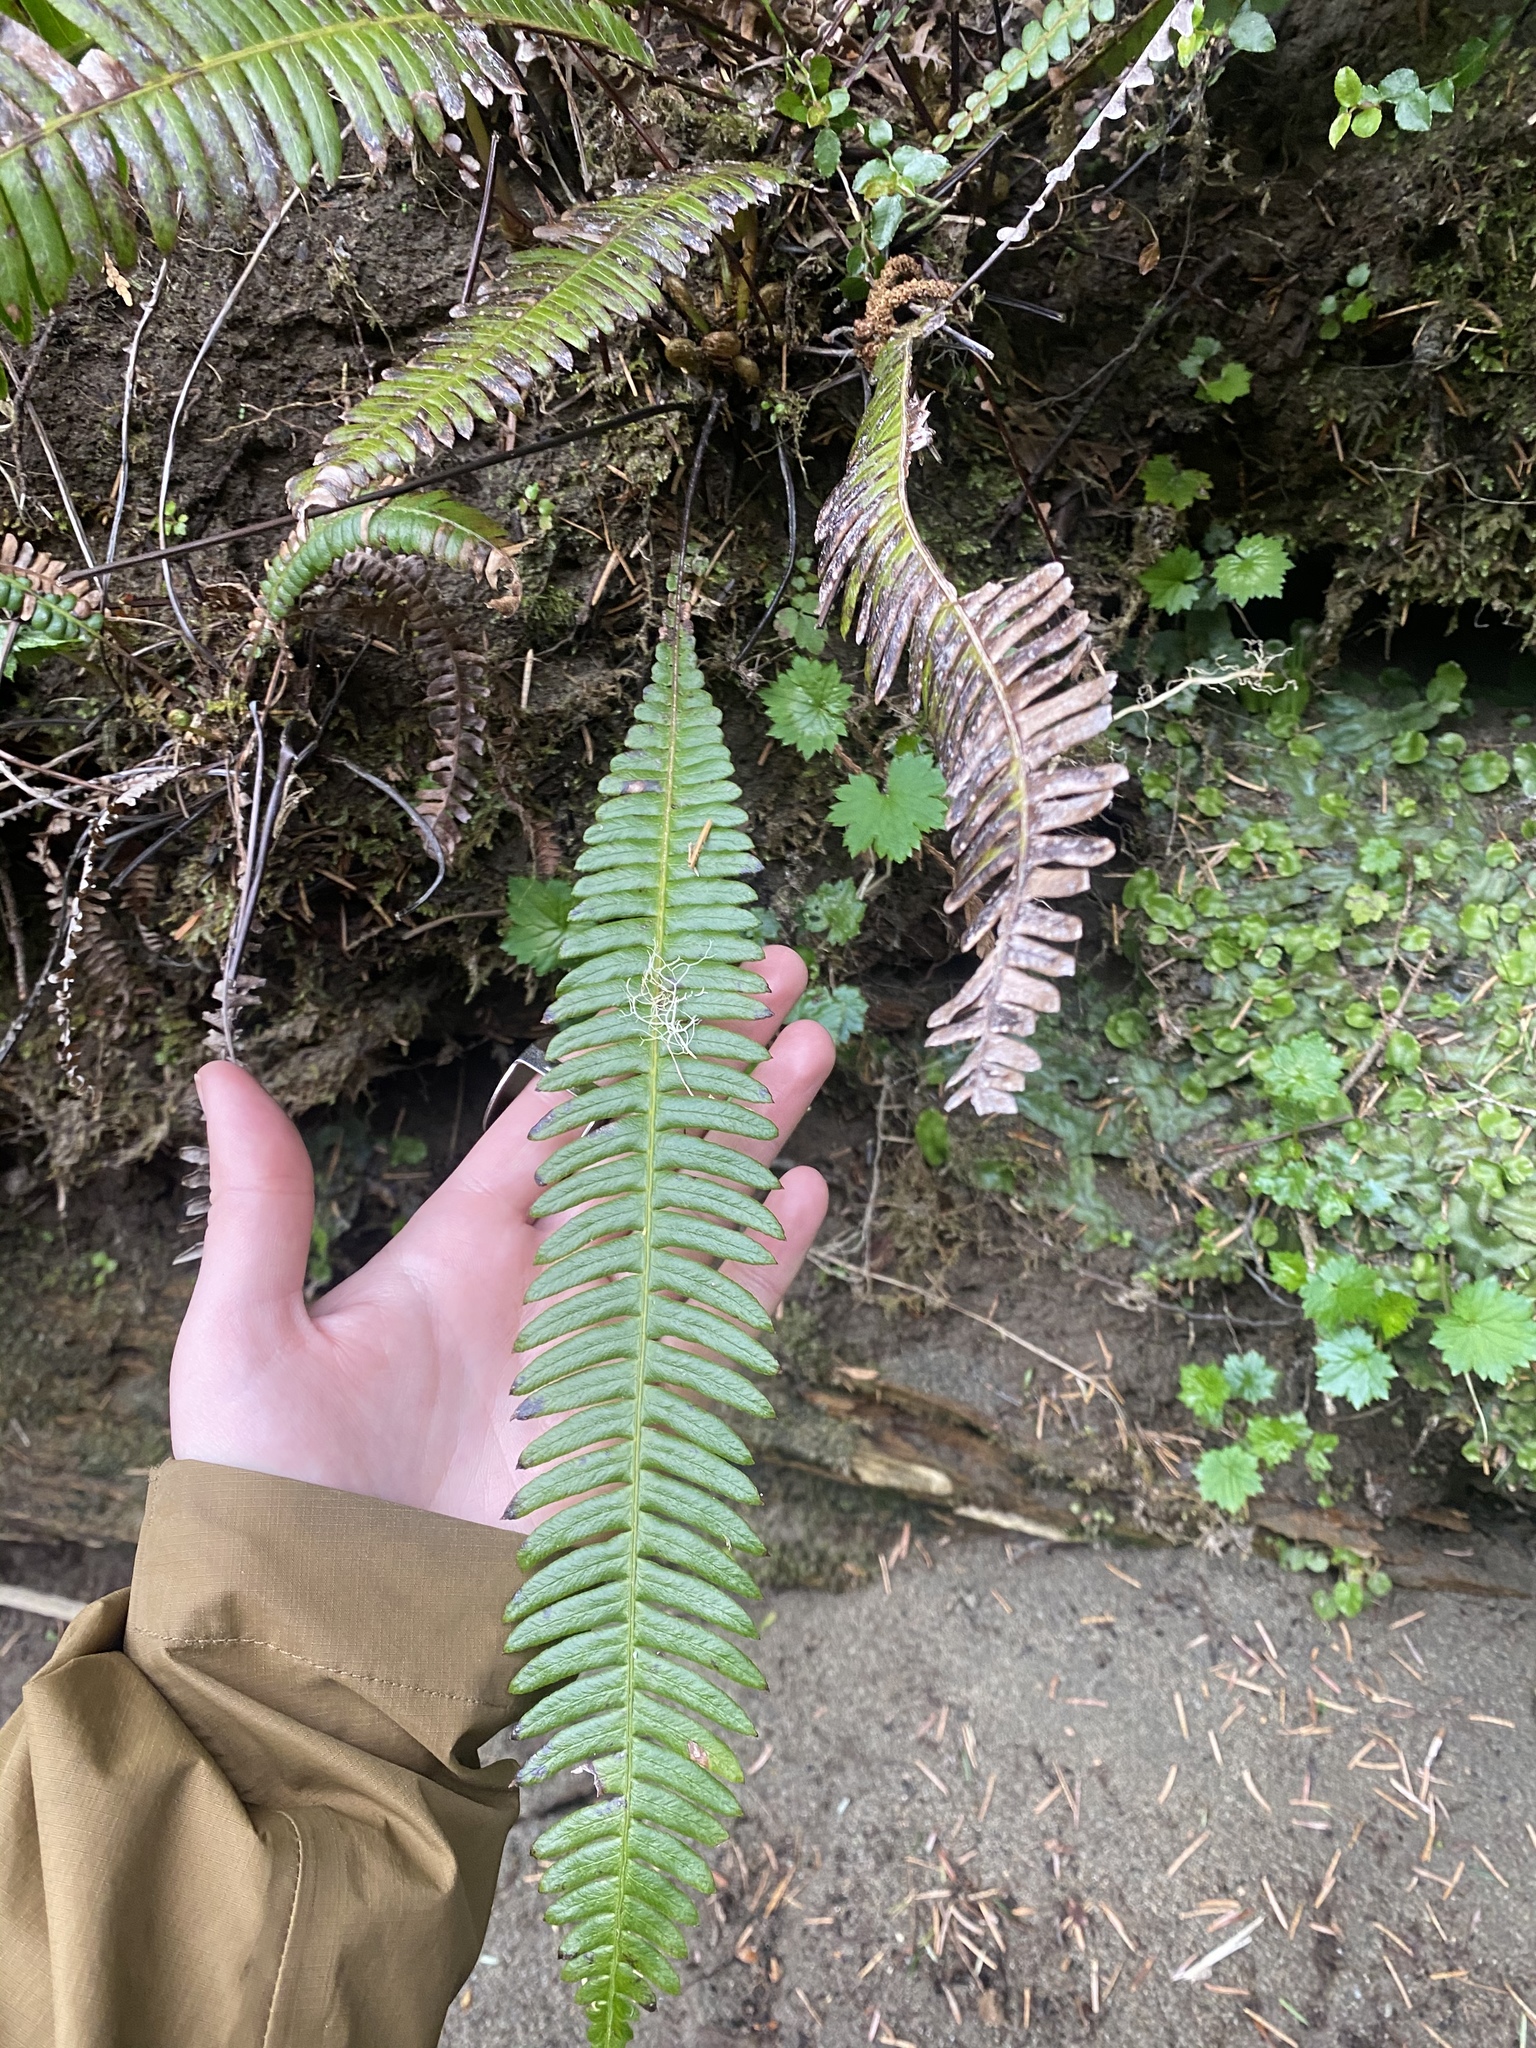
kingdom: Plantae
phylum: Tracheophyta
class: Polypodiopsida
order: Polypodiales
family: Blechnaceae
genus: Struthiopteris
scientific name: Struthiopteris spicant
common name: Deer fern
